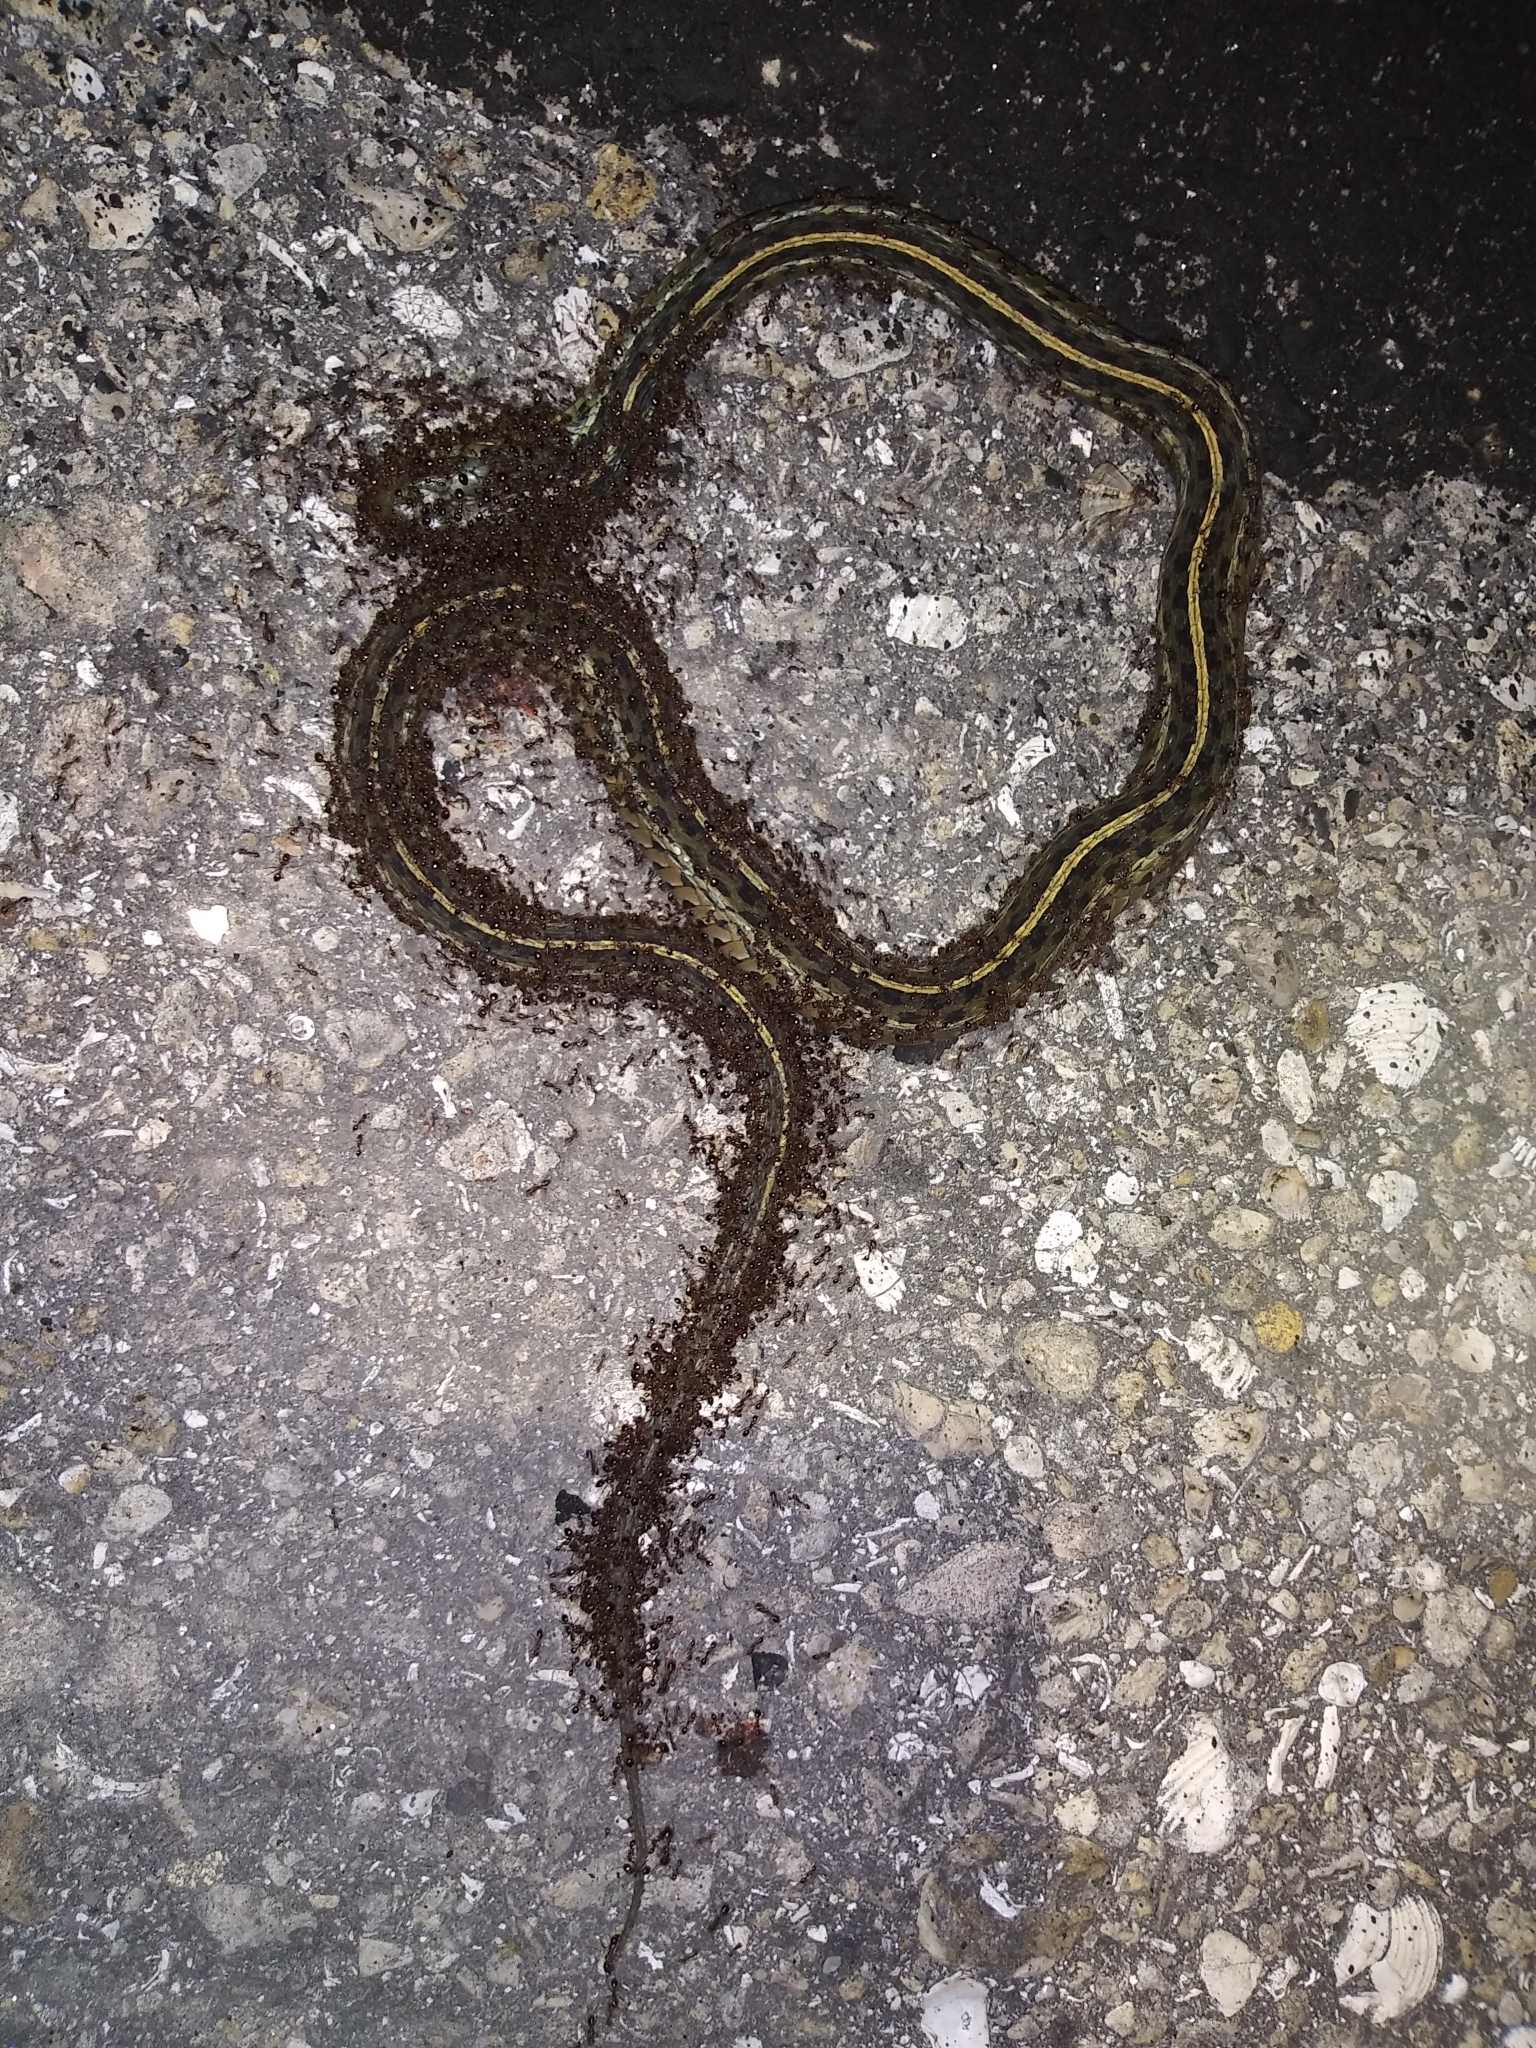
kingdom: Animalia
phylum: Chordata
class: Squamata
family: Colubridae
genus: Thamnophis
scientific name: Thamnophis sirtalis
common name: Common garter snake
